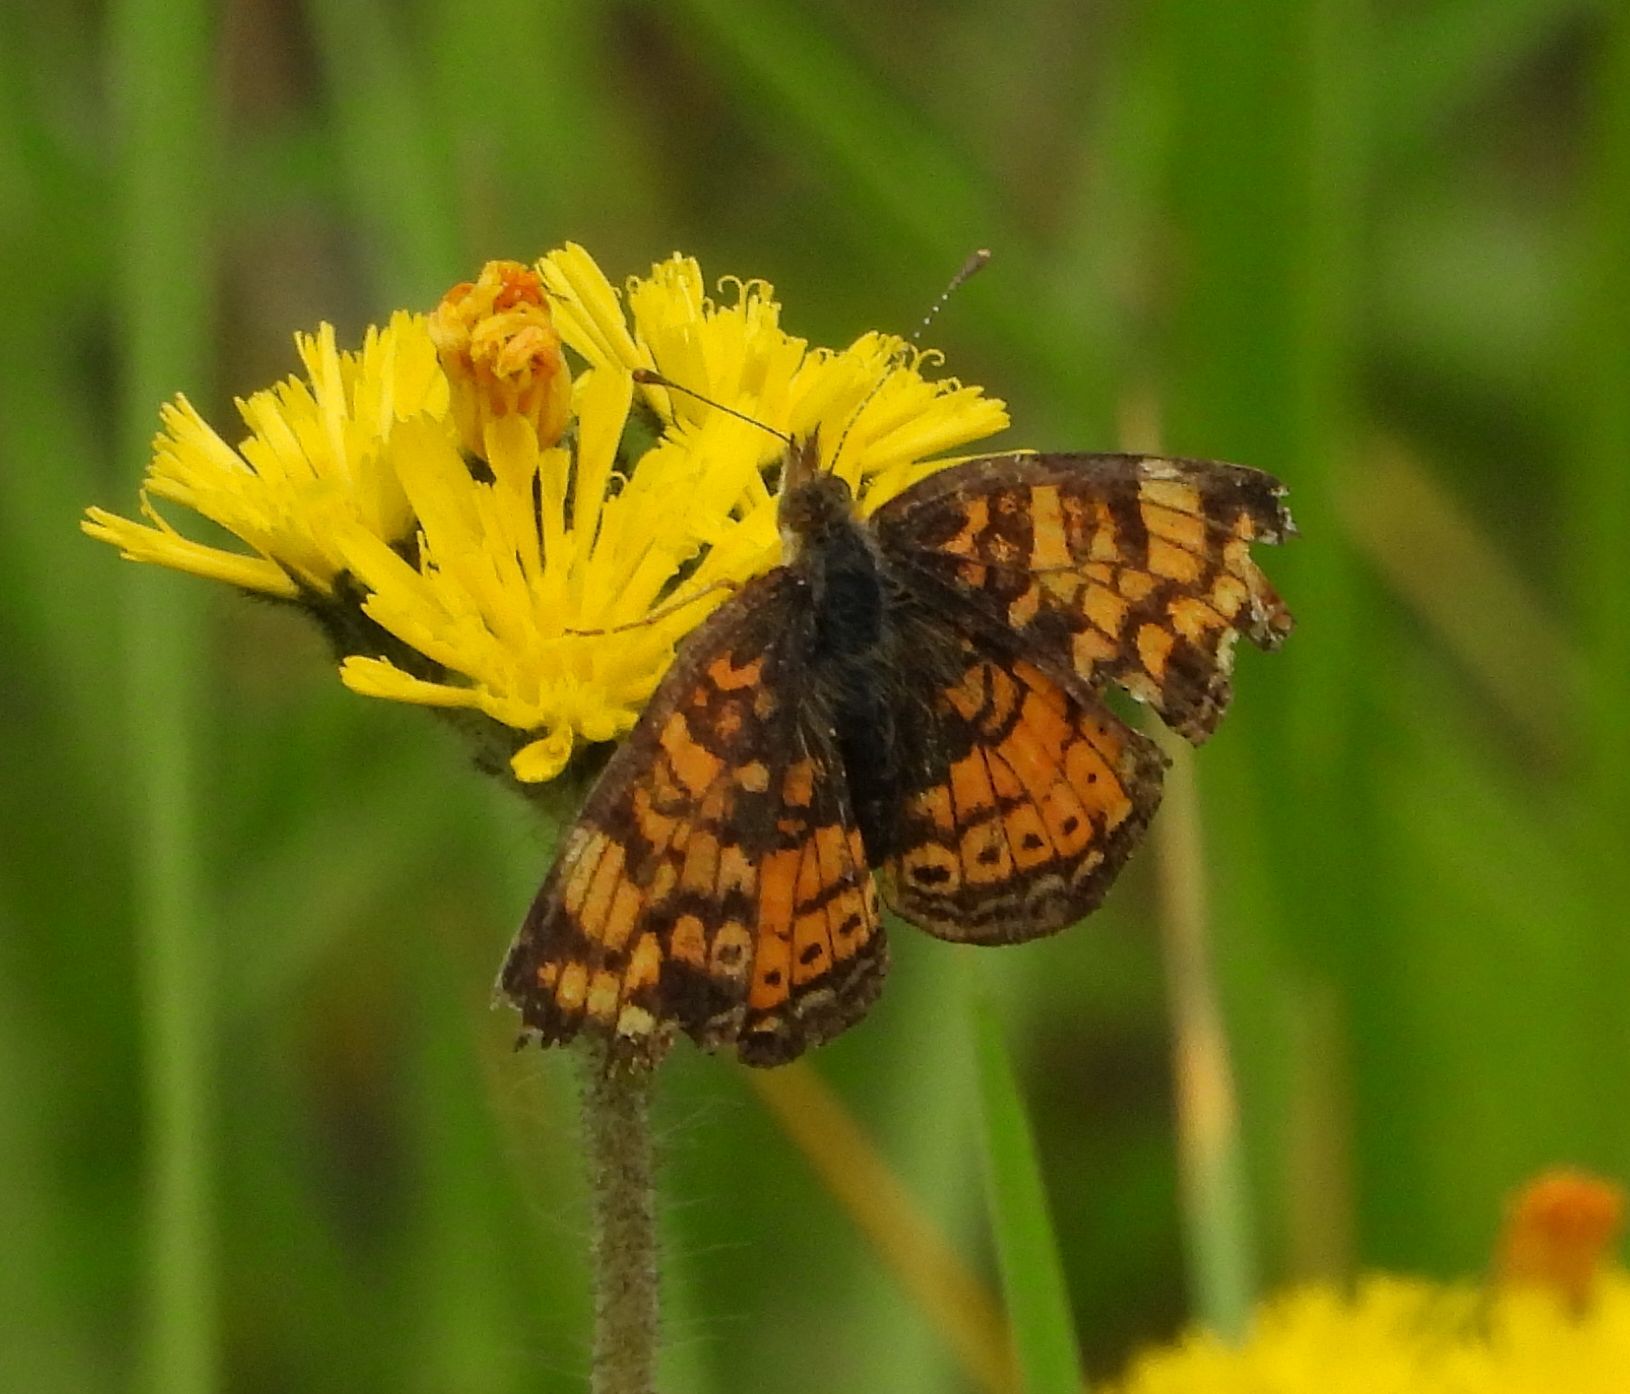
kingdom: Animalia
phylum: Arthropoda
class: Insecta
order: Lepidoptera
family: Nymphalidae
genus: Phyciodes
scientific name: Phyciodes tharos
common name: Pearl crescent
